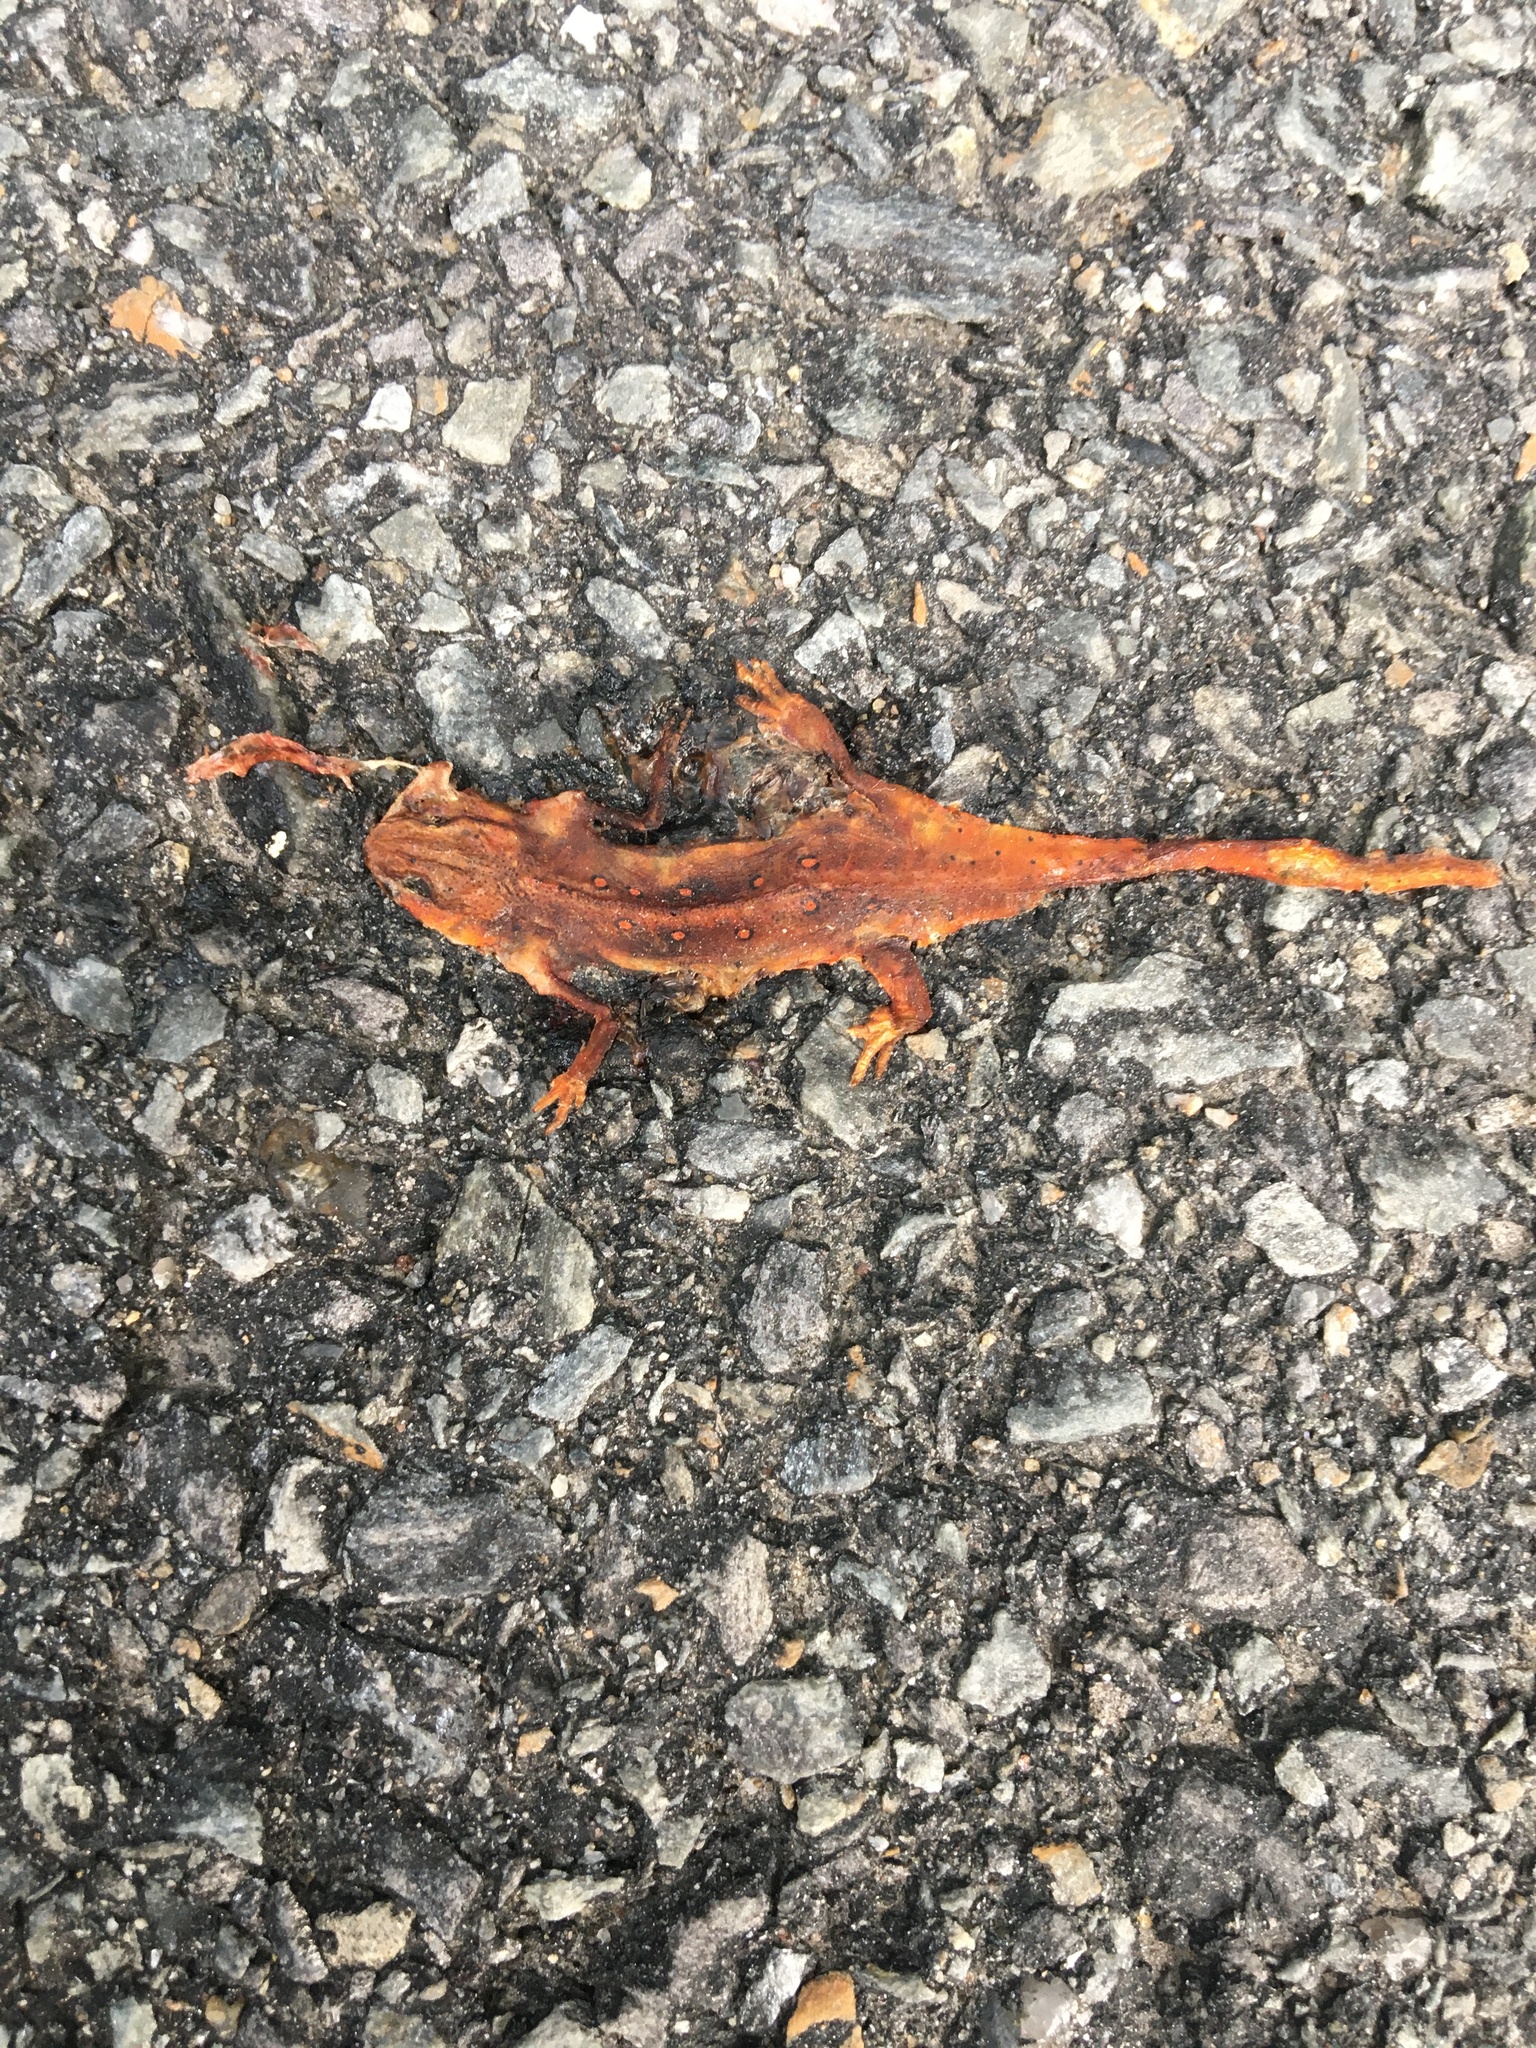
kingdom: Animalia
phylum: Chordata
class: Amphibia
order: Caudata
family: Salamandridae
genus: Notophthalmus
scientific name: Notophthalmus viridescens
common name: Eastern newt
